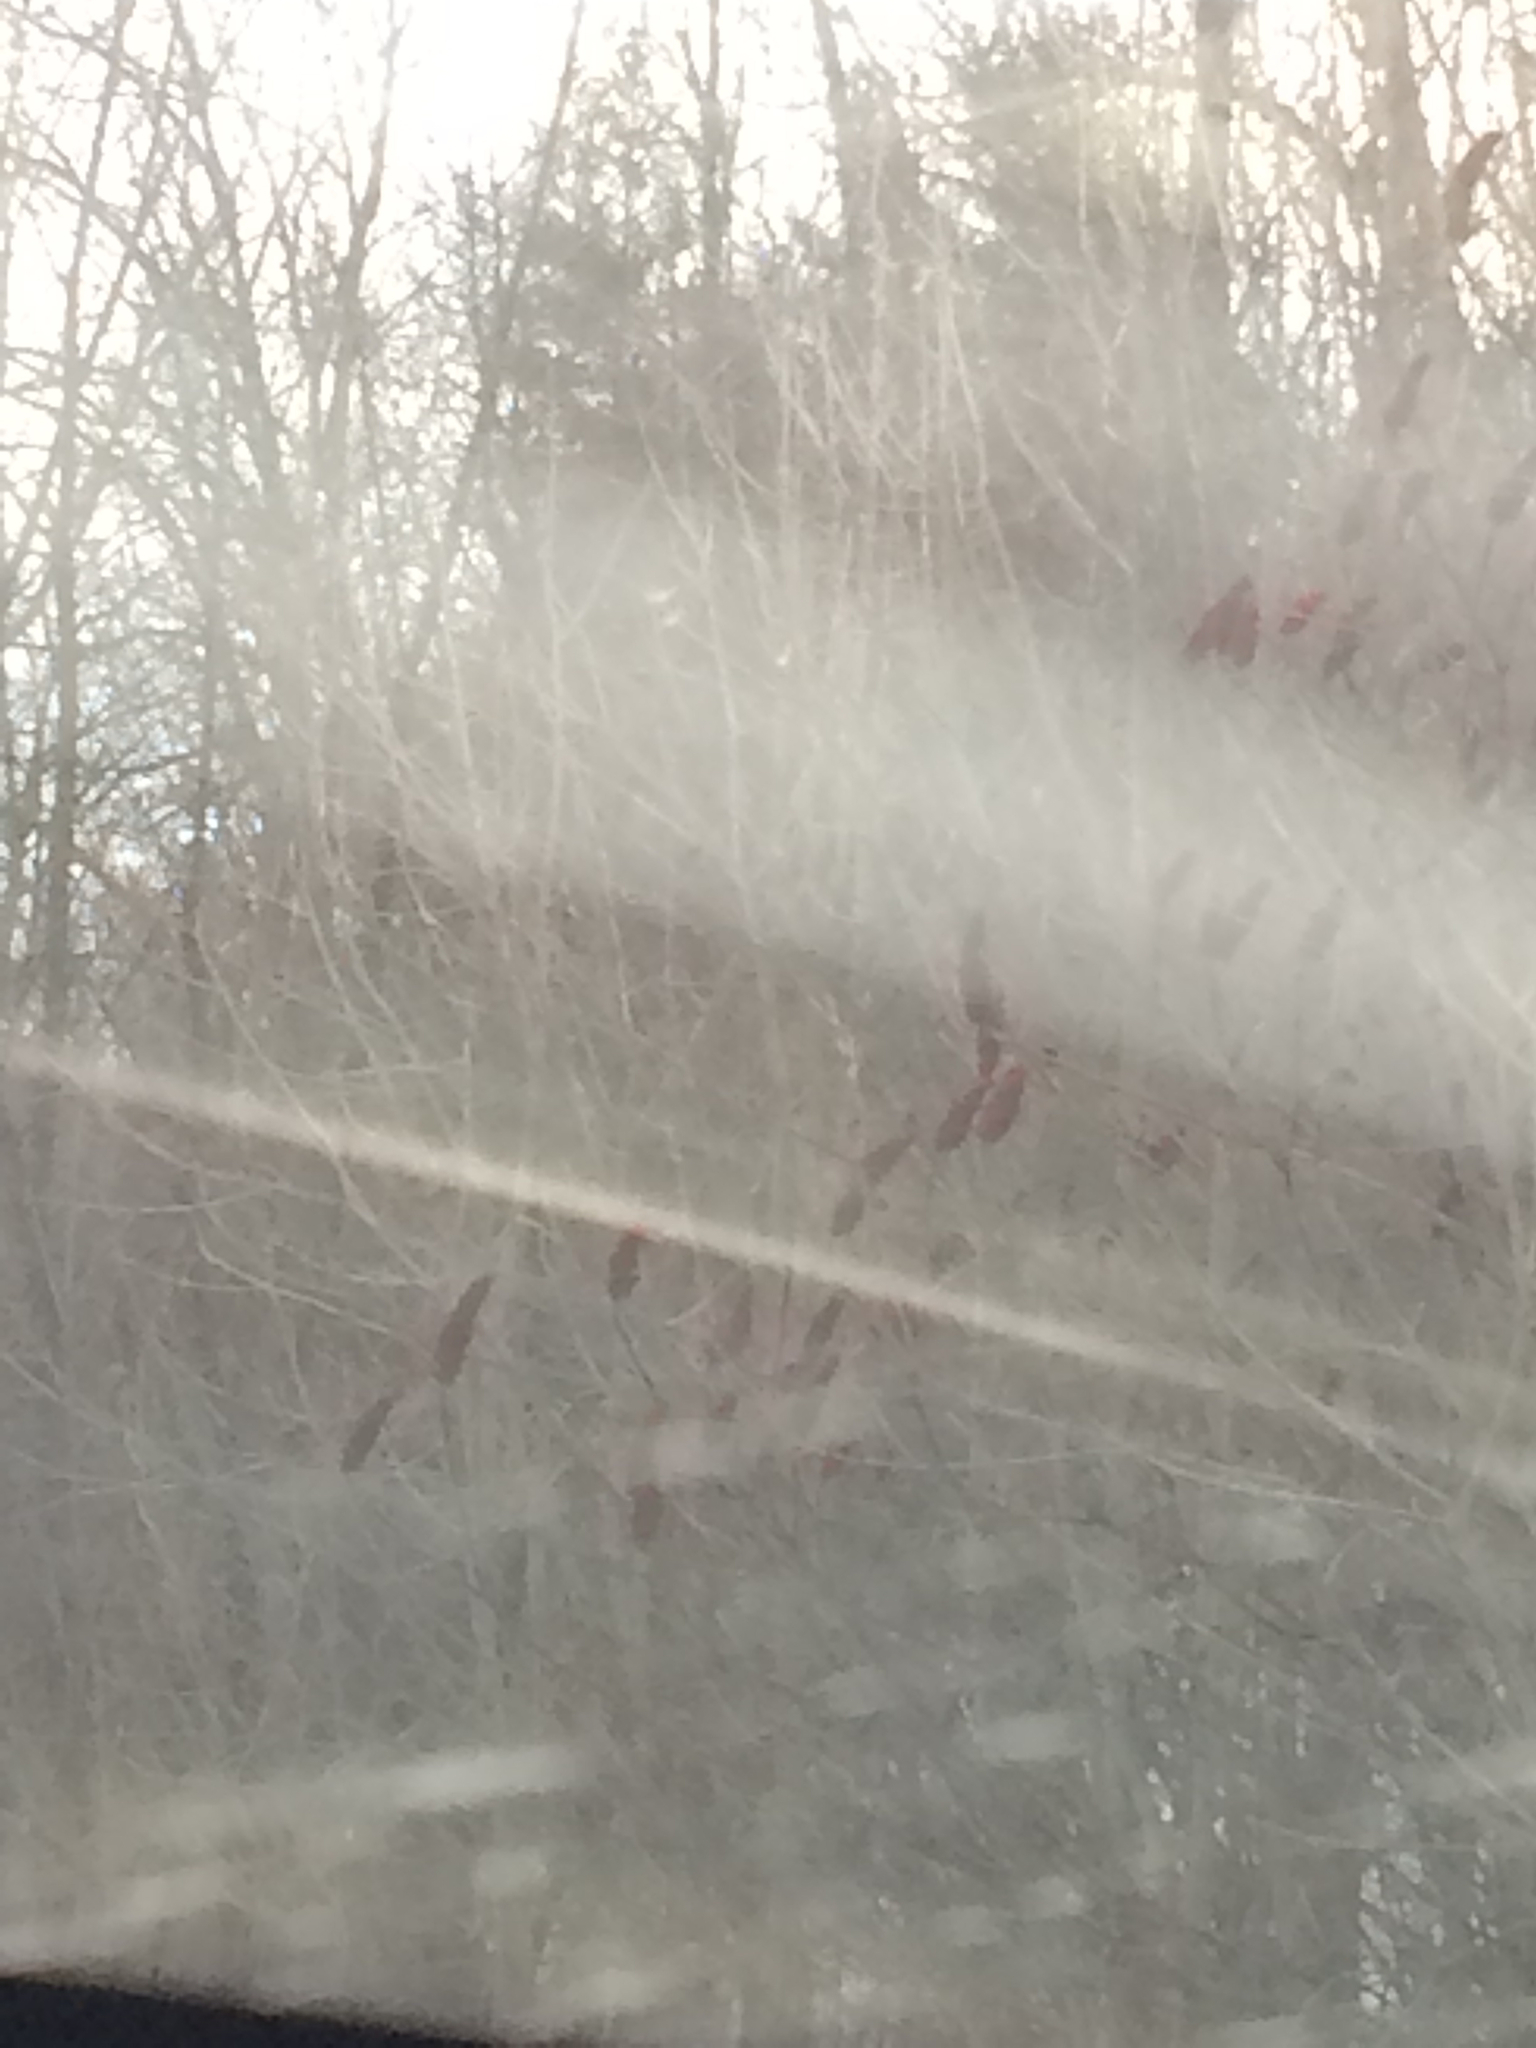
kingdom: Plantae
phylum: Tracheophyta
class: Magnoliopsida
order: Sapindales
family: Anacardiaceae
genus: Rhus
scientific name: Rhus typhina
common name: Staghorn sumac
